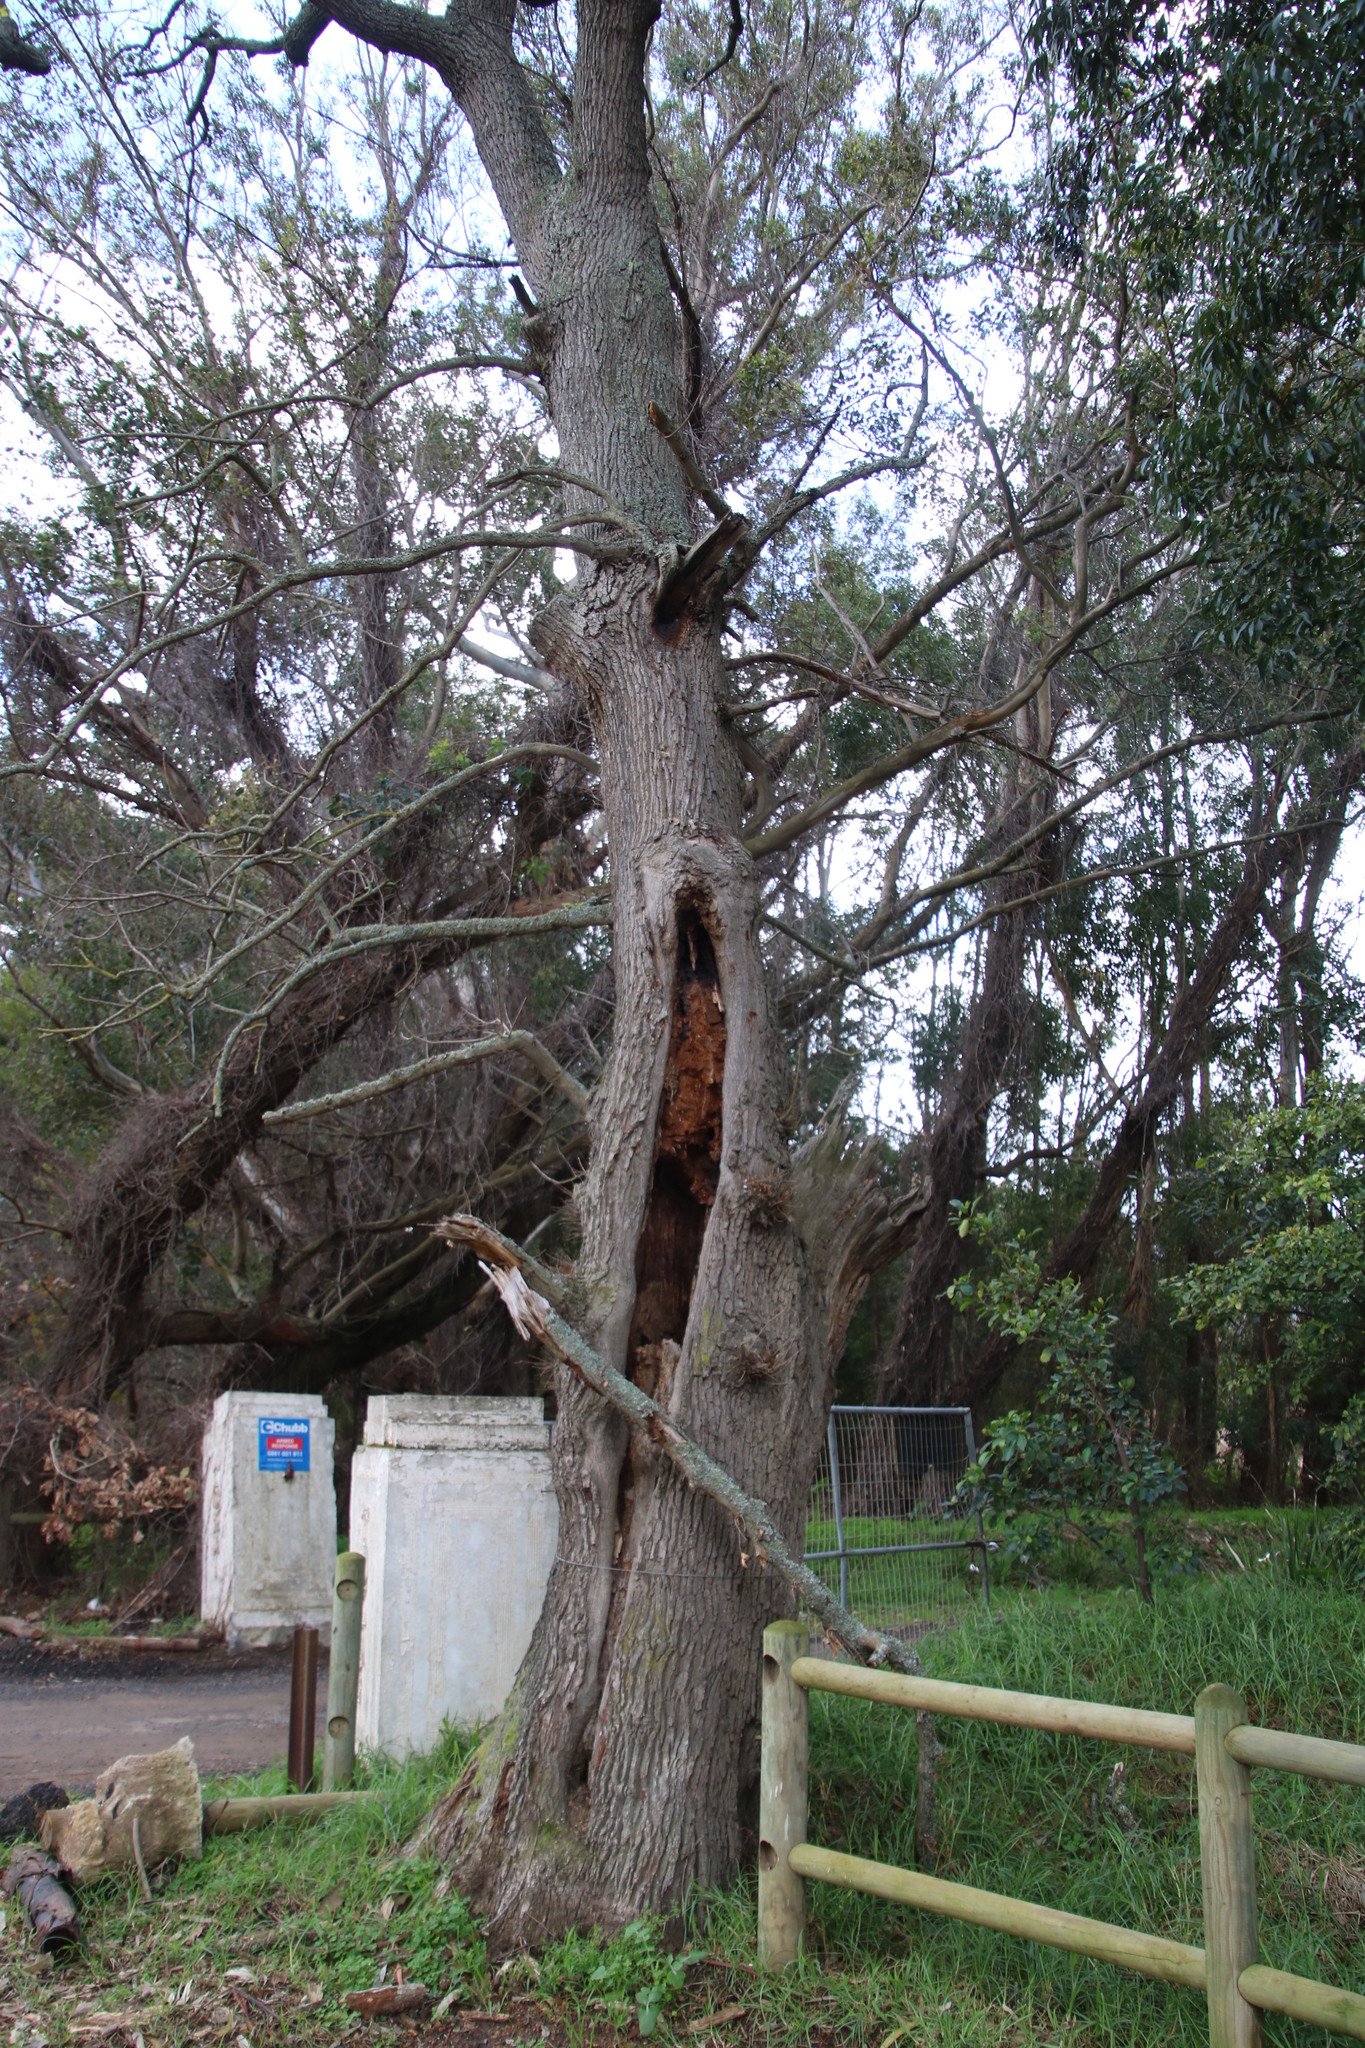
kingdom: Animalia
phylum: Arthropoda
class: Insecta
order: Hymenoptera
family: Apidae
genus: Apis
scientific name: Apis mellifera
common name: Honey bee
